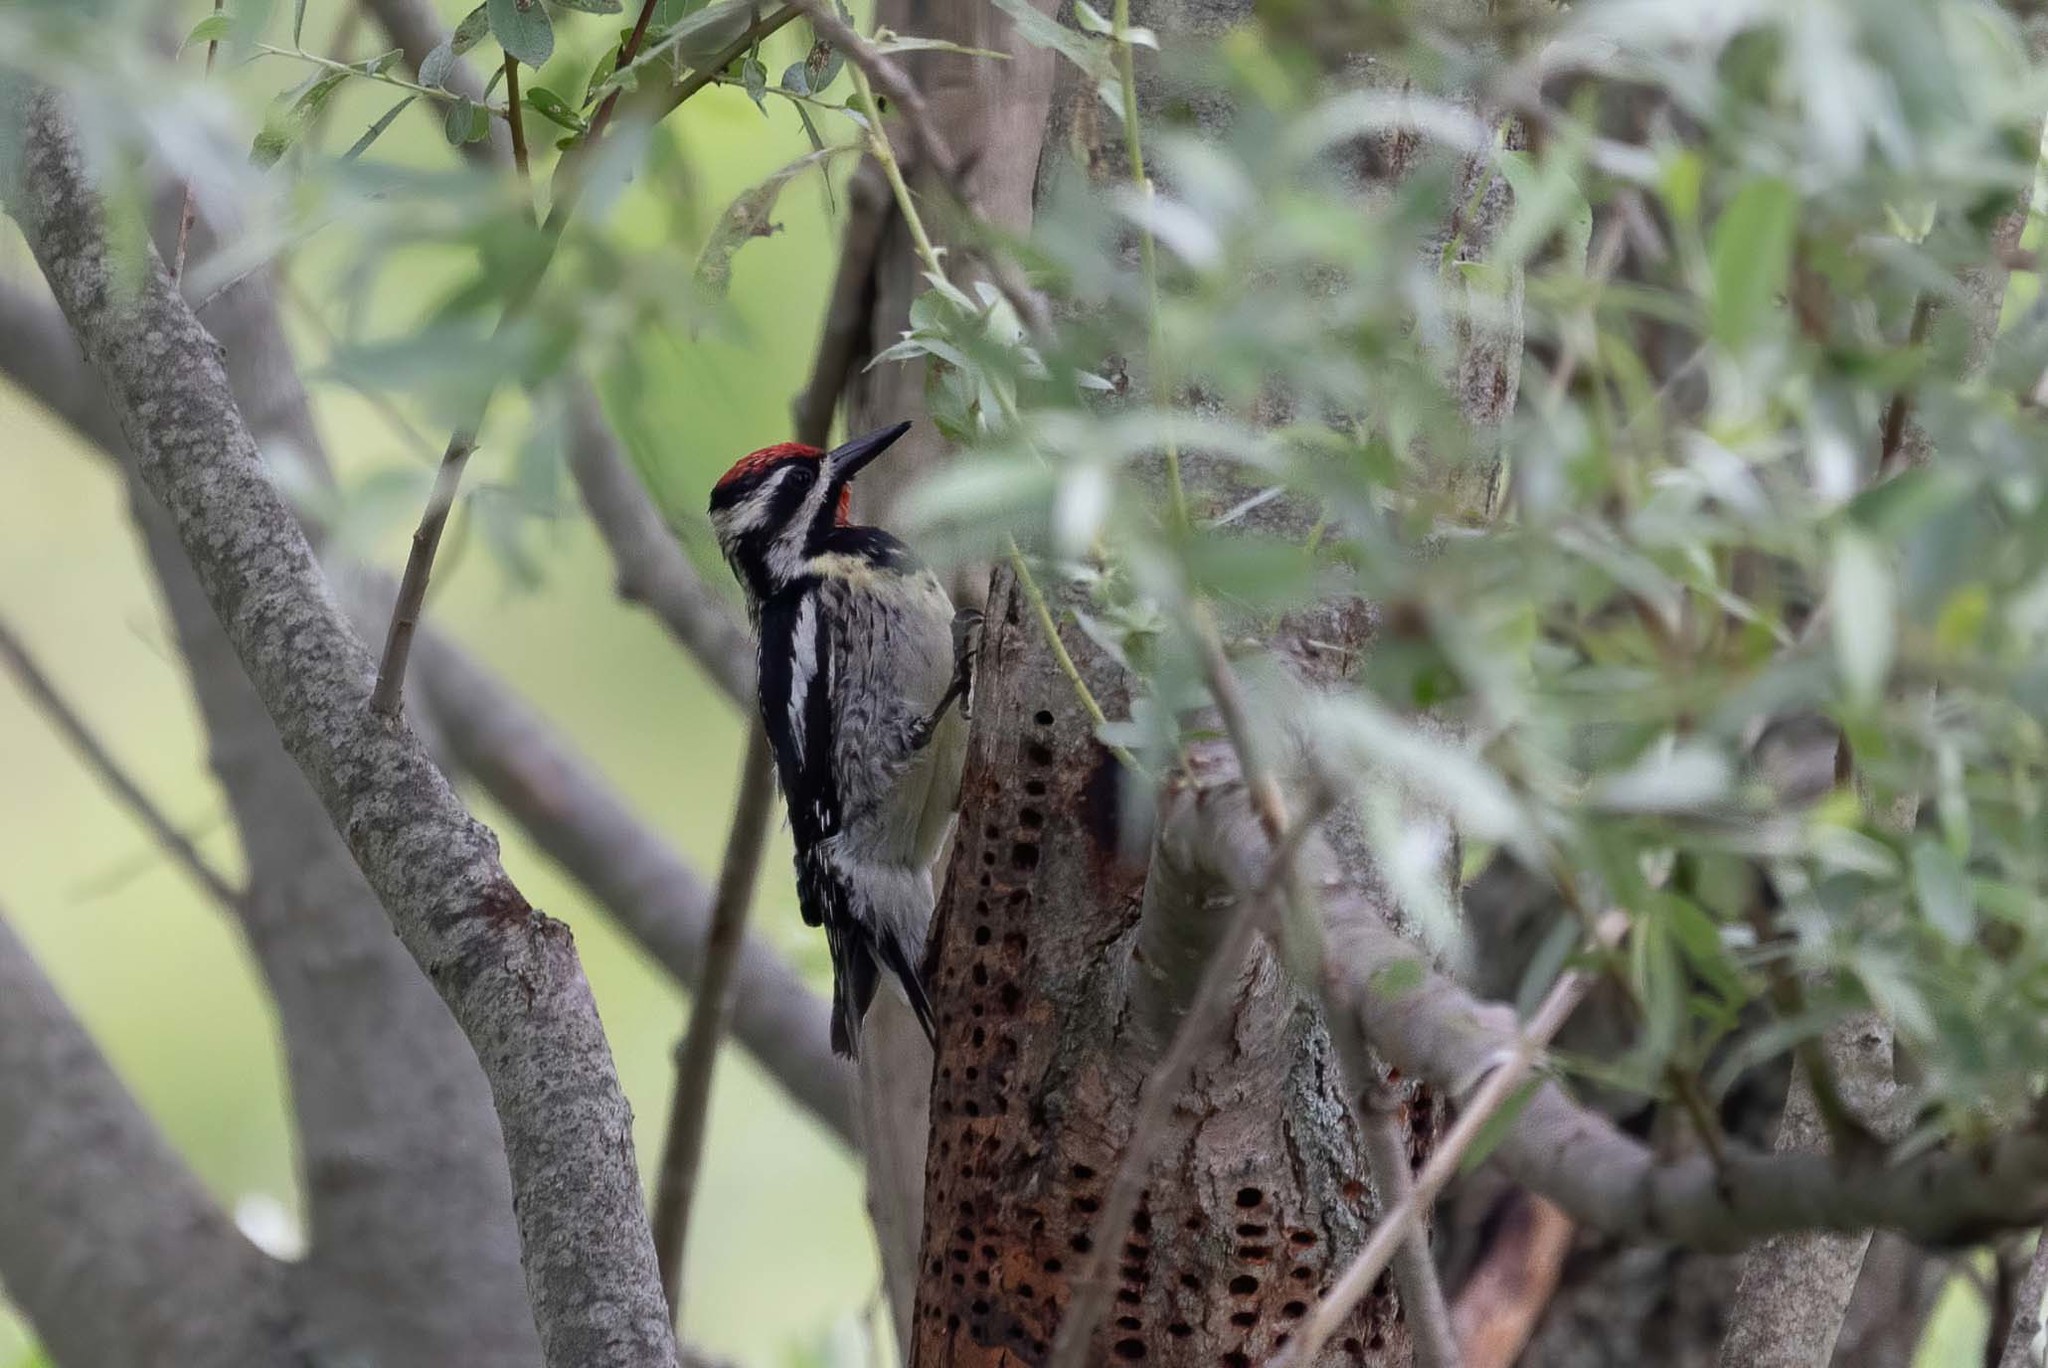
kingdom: Animalia
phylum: Chordata
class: Aves
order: Piciformes
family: Picidae
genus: Sphyrapicus
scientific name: Sphyrapicus varius
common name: Yellow-bellied sapsucker
